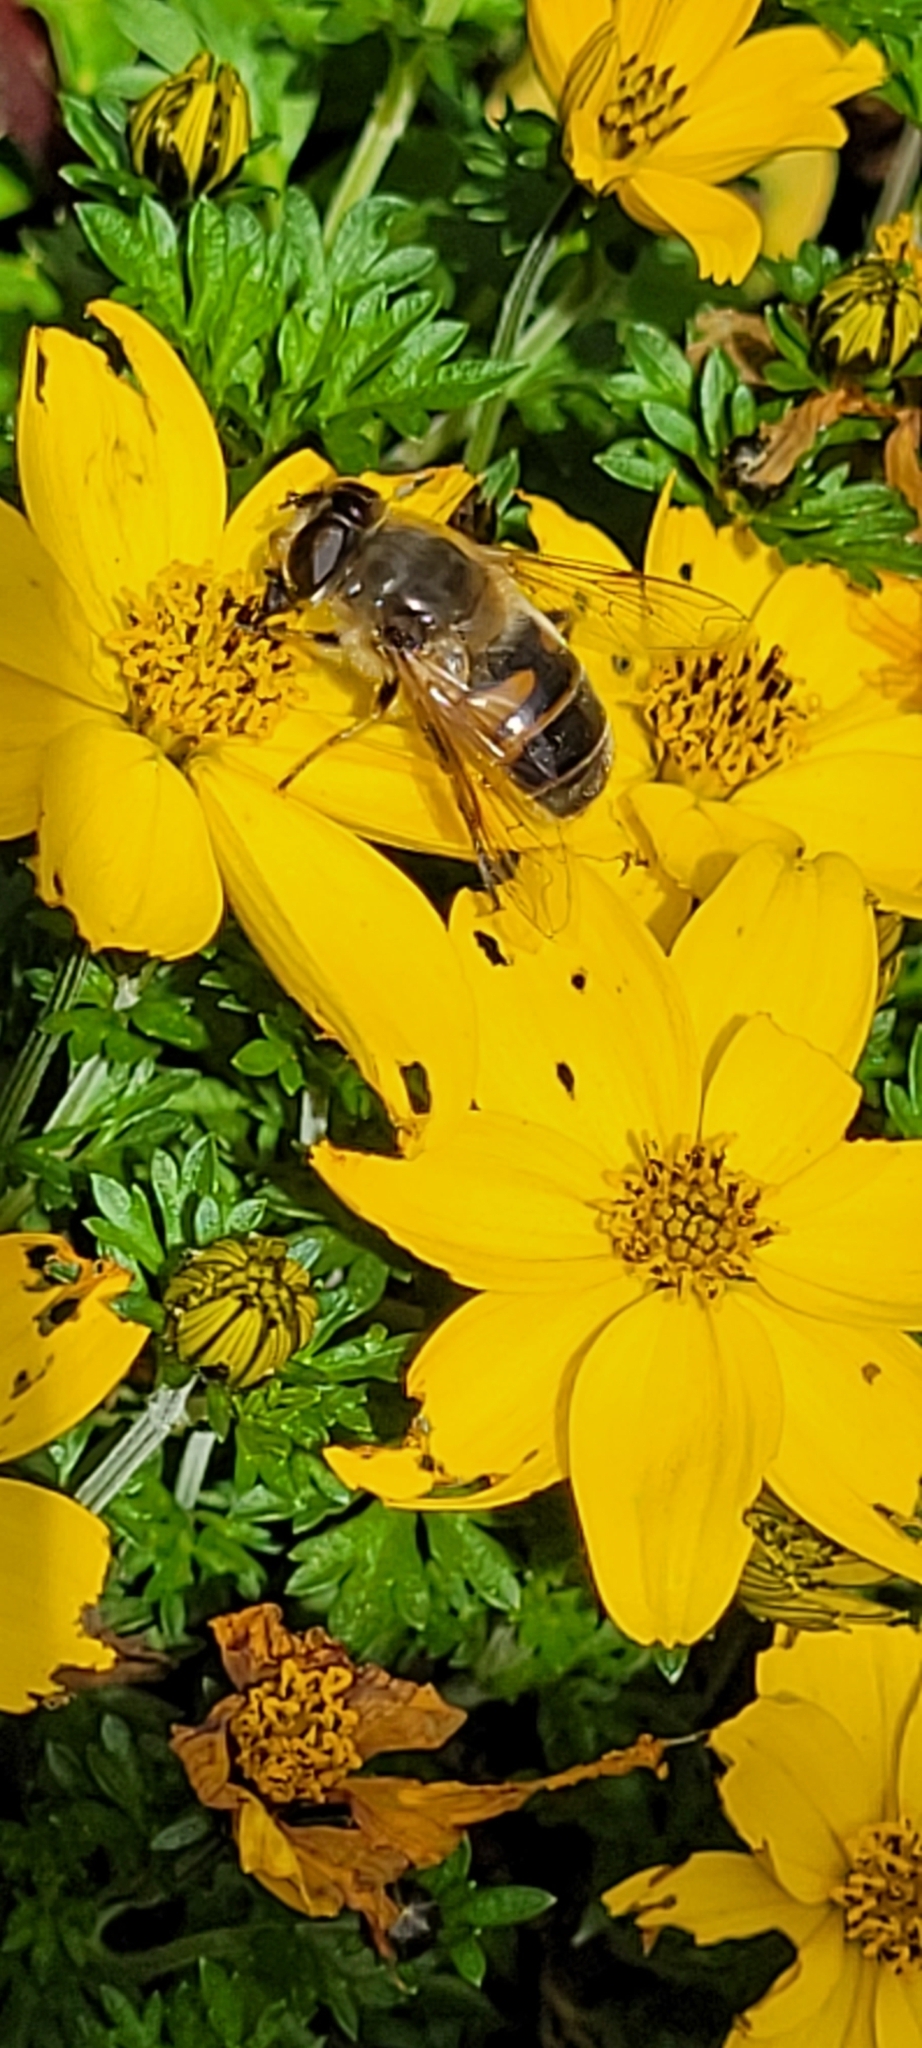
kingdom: Animalia
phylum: Arthropoda
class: Insecta
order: Diptera
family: Syrphidae
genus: Eristalis
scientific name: Eristalis tenax
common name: Drone fly
